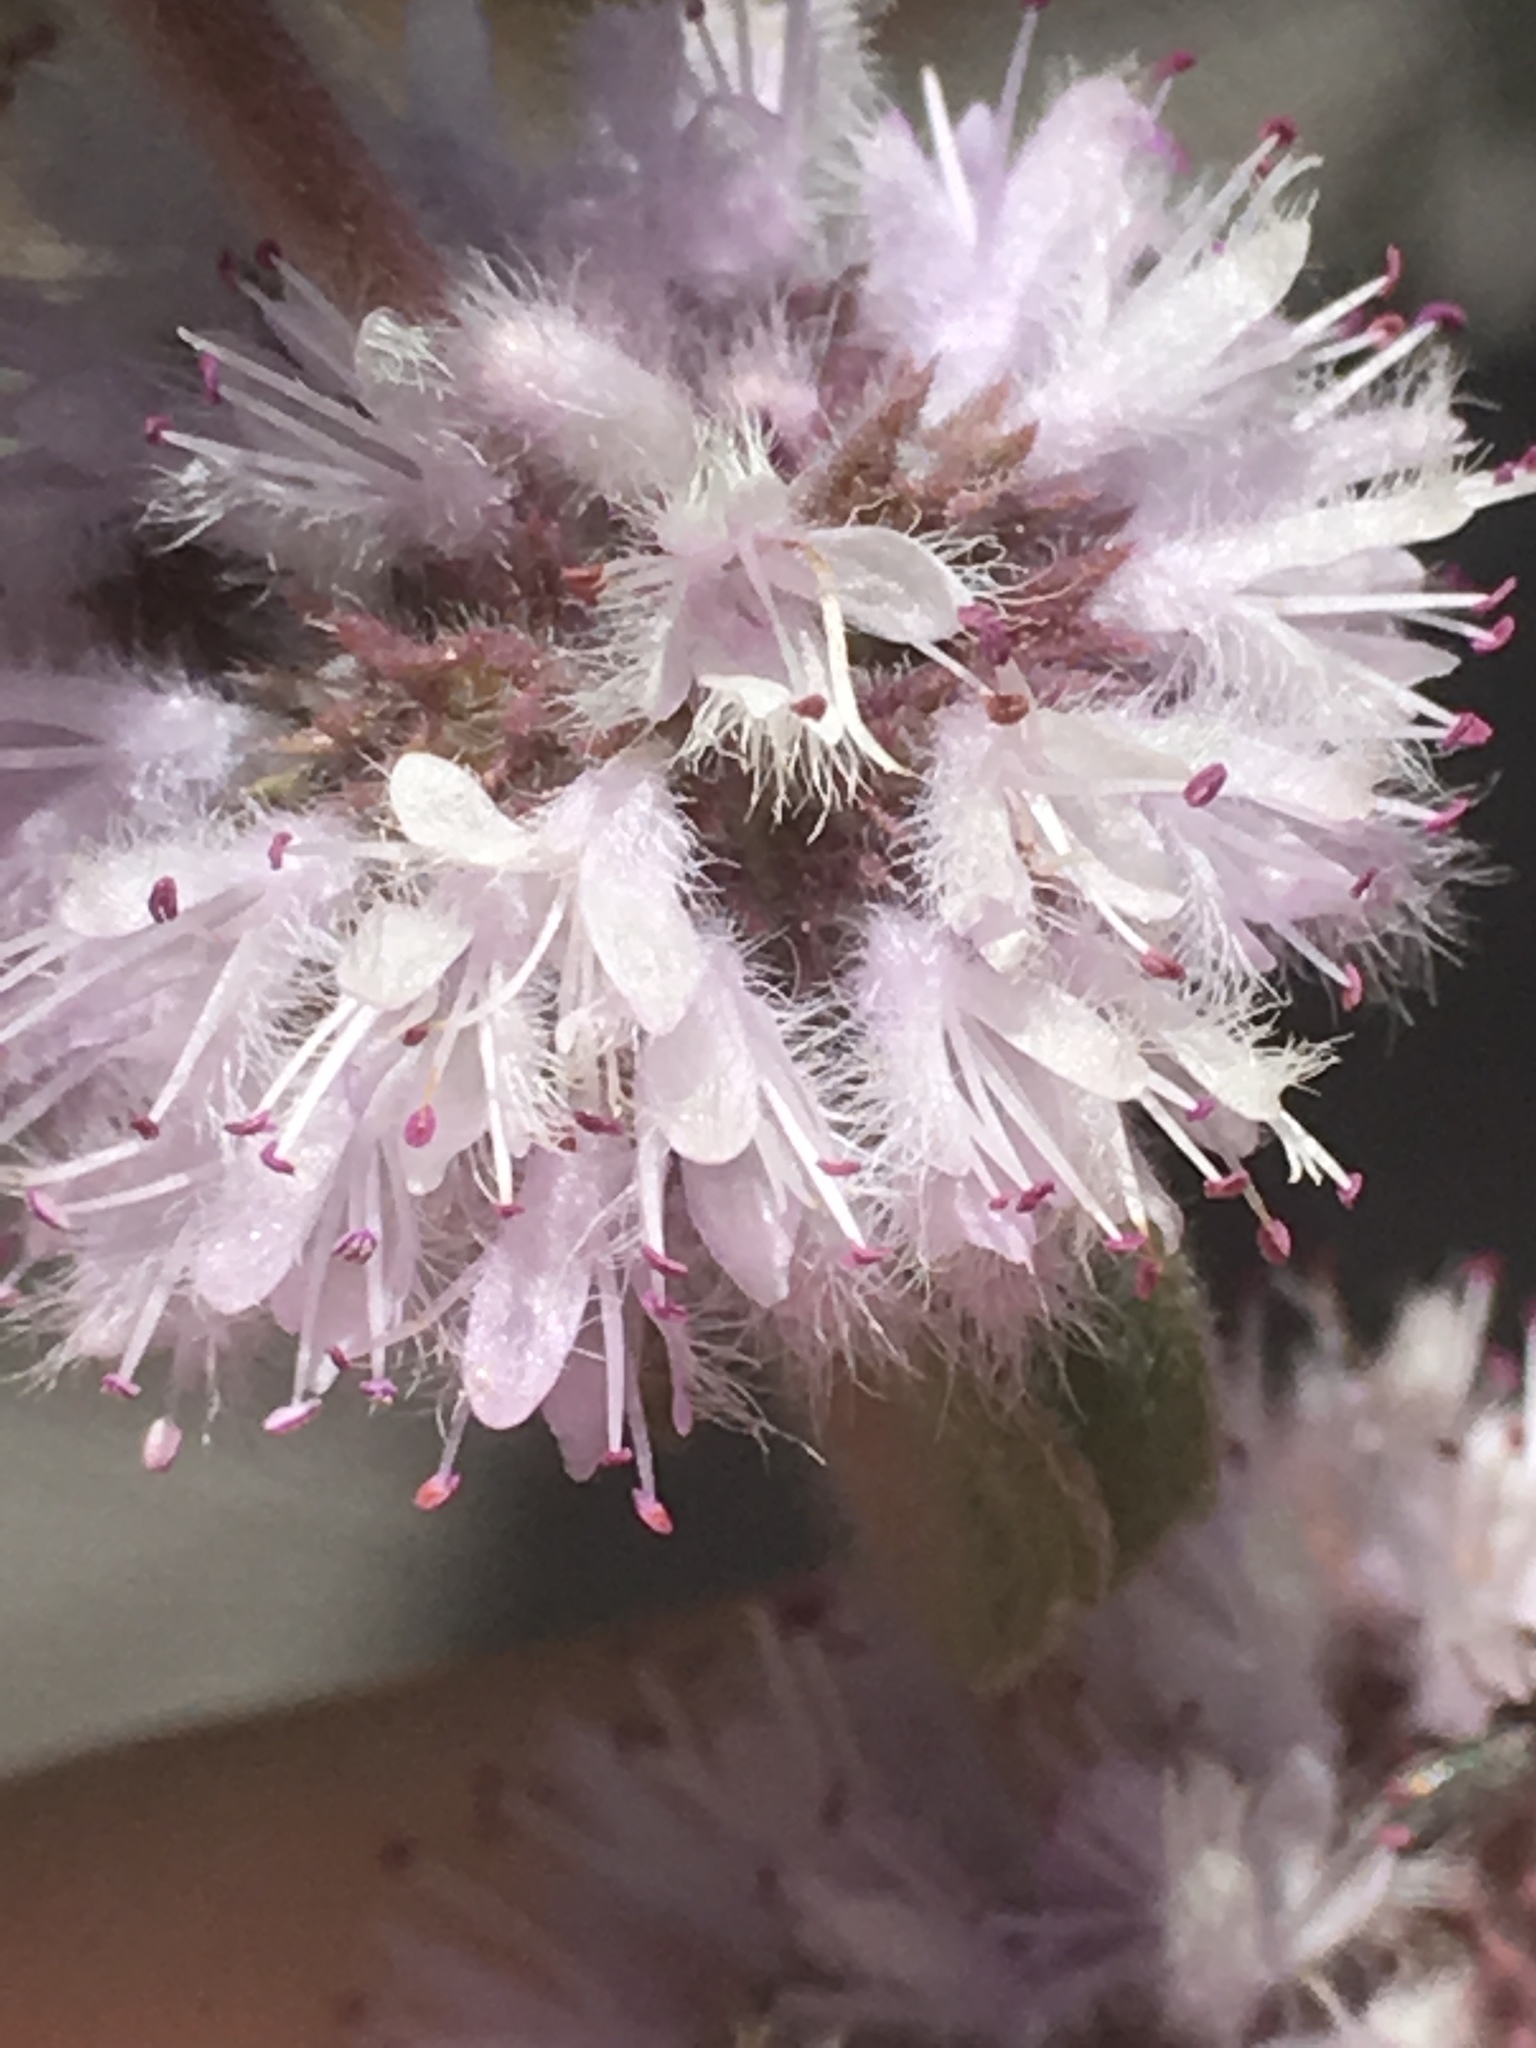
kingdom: Plantae
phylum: Tracheophyta
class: Magnoliopsida
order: Lamiales
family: Lamiaceae
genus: Mentha
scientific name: Mentha pulegium
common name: Pennyroyal
